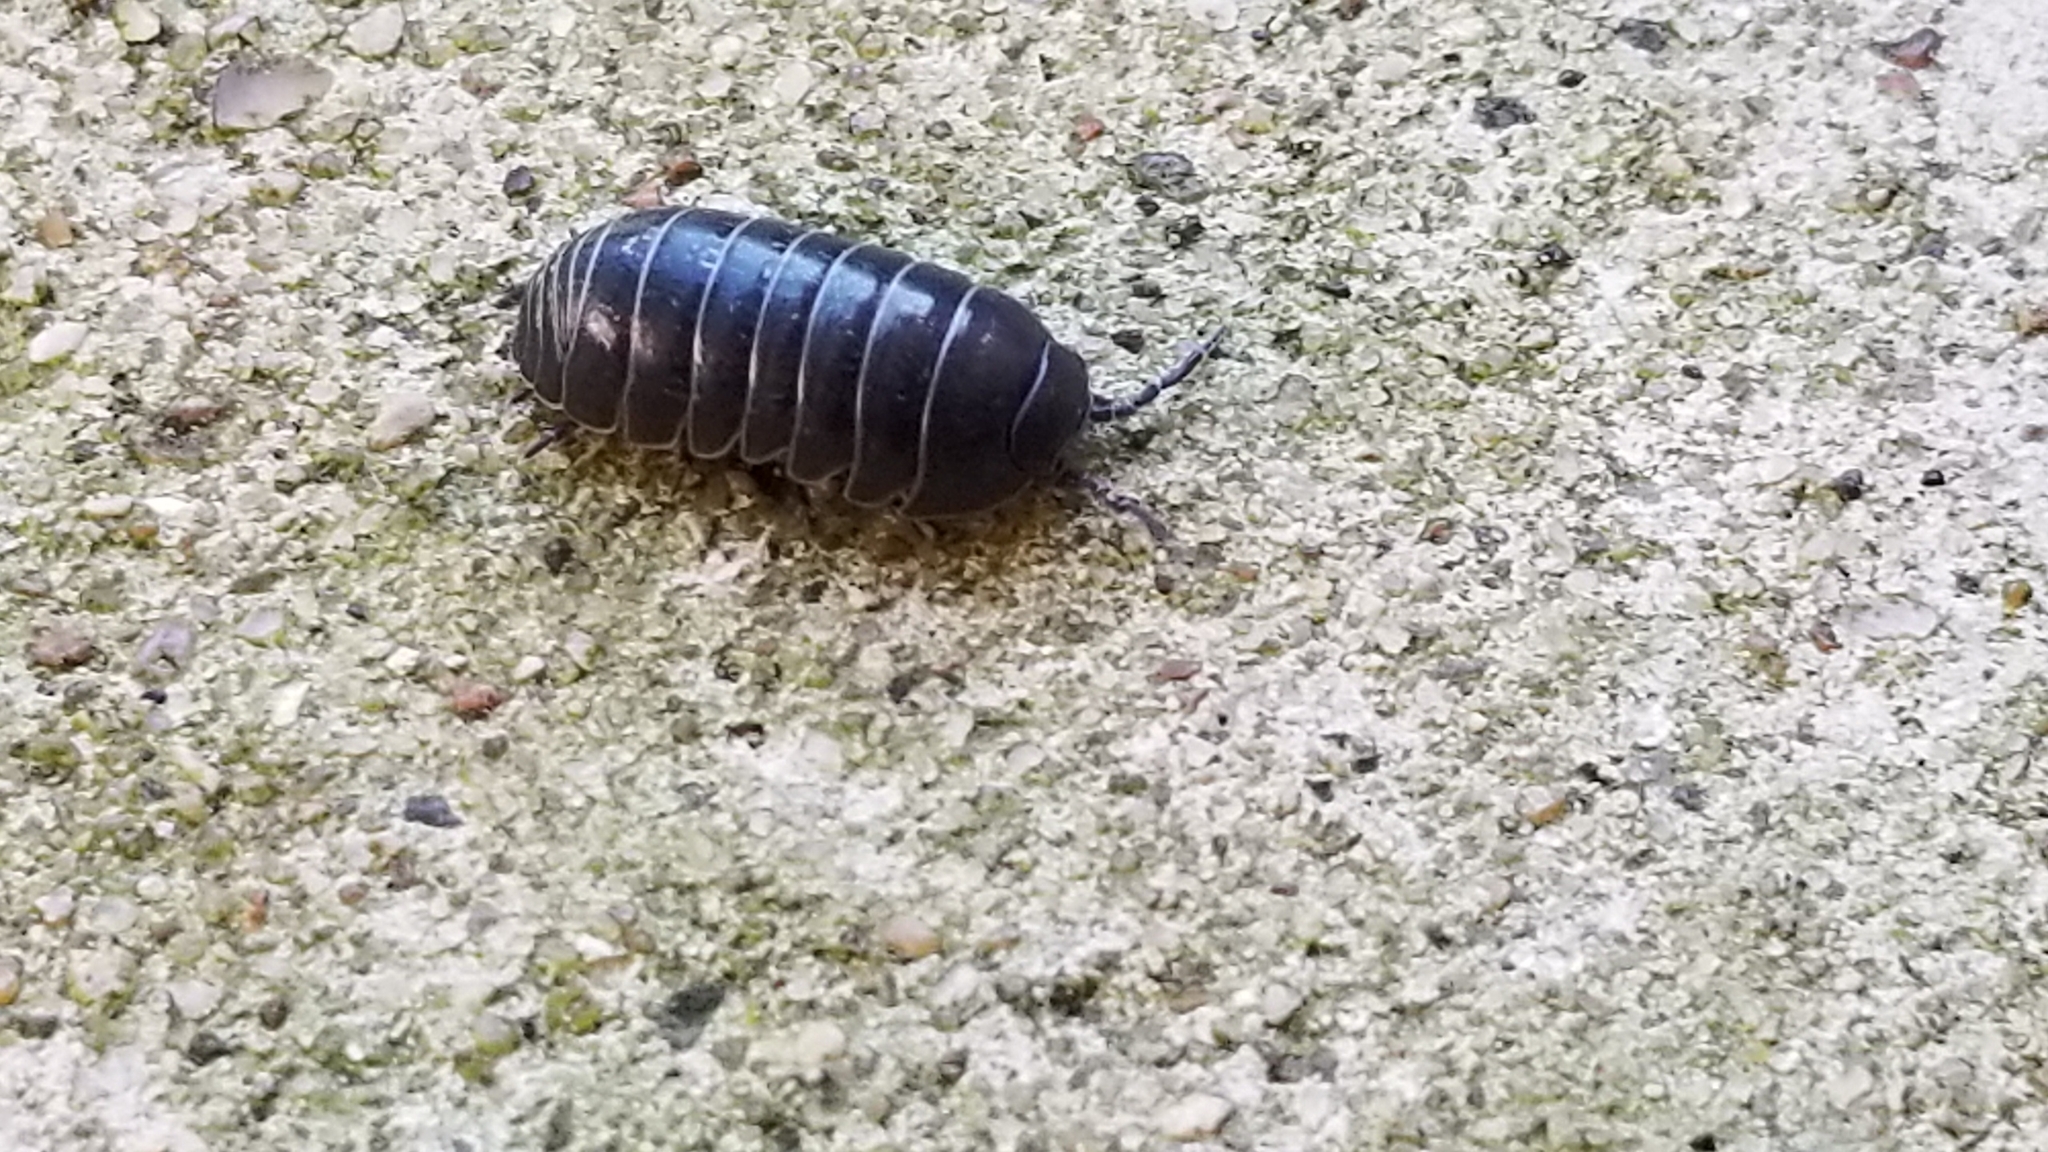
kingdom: Animalia
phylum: Arthropoda
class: Malacostraca
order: Isopoda
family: Armadillidiidae
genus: Armadillidium
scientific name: Armadillidium vulgare
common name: Common pill woodlouse
